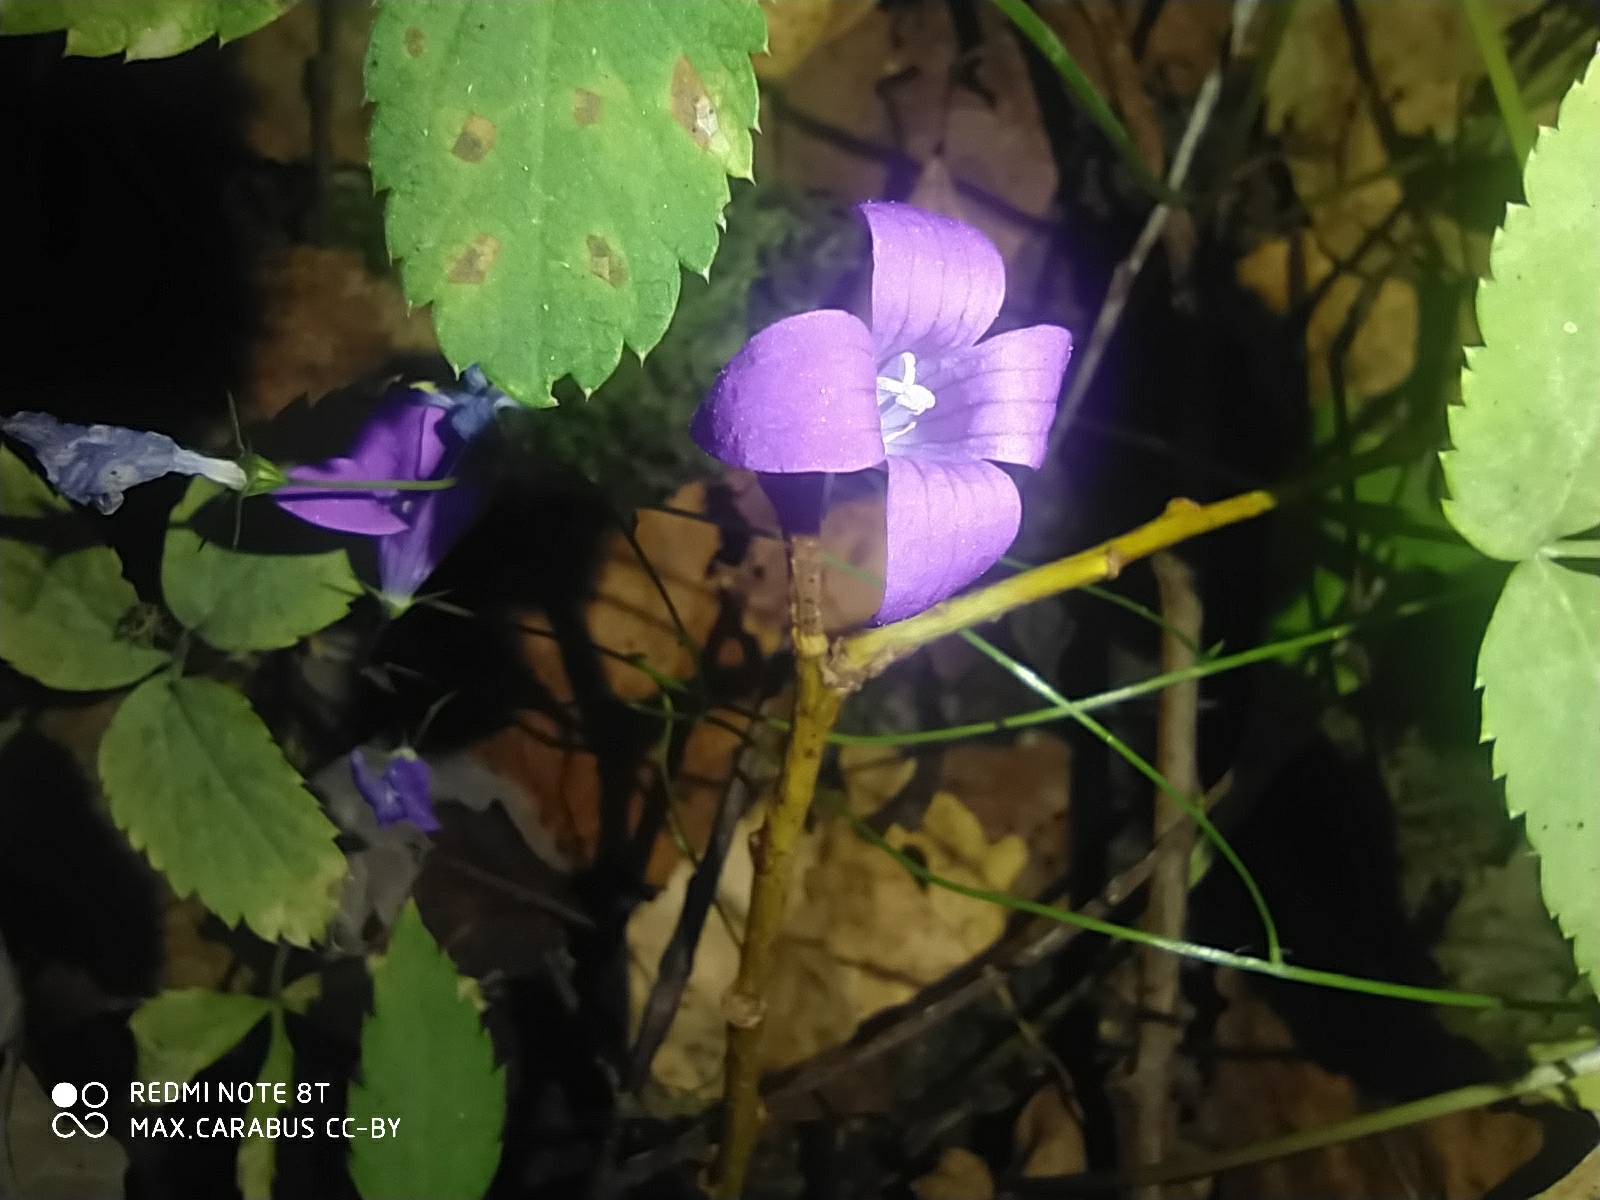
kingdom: Plantae
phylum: Tracheophyta
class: Magnoliopsida
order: Asterales
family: Campanulaceae
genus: Campanula
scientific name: Campanula patula
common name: Spreading bellflower
